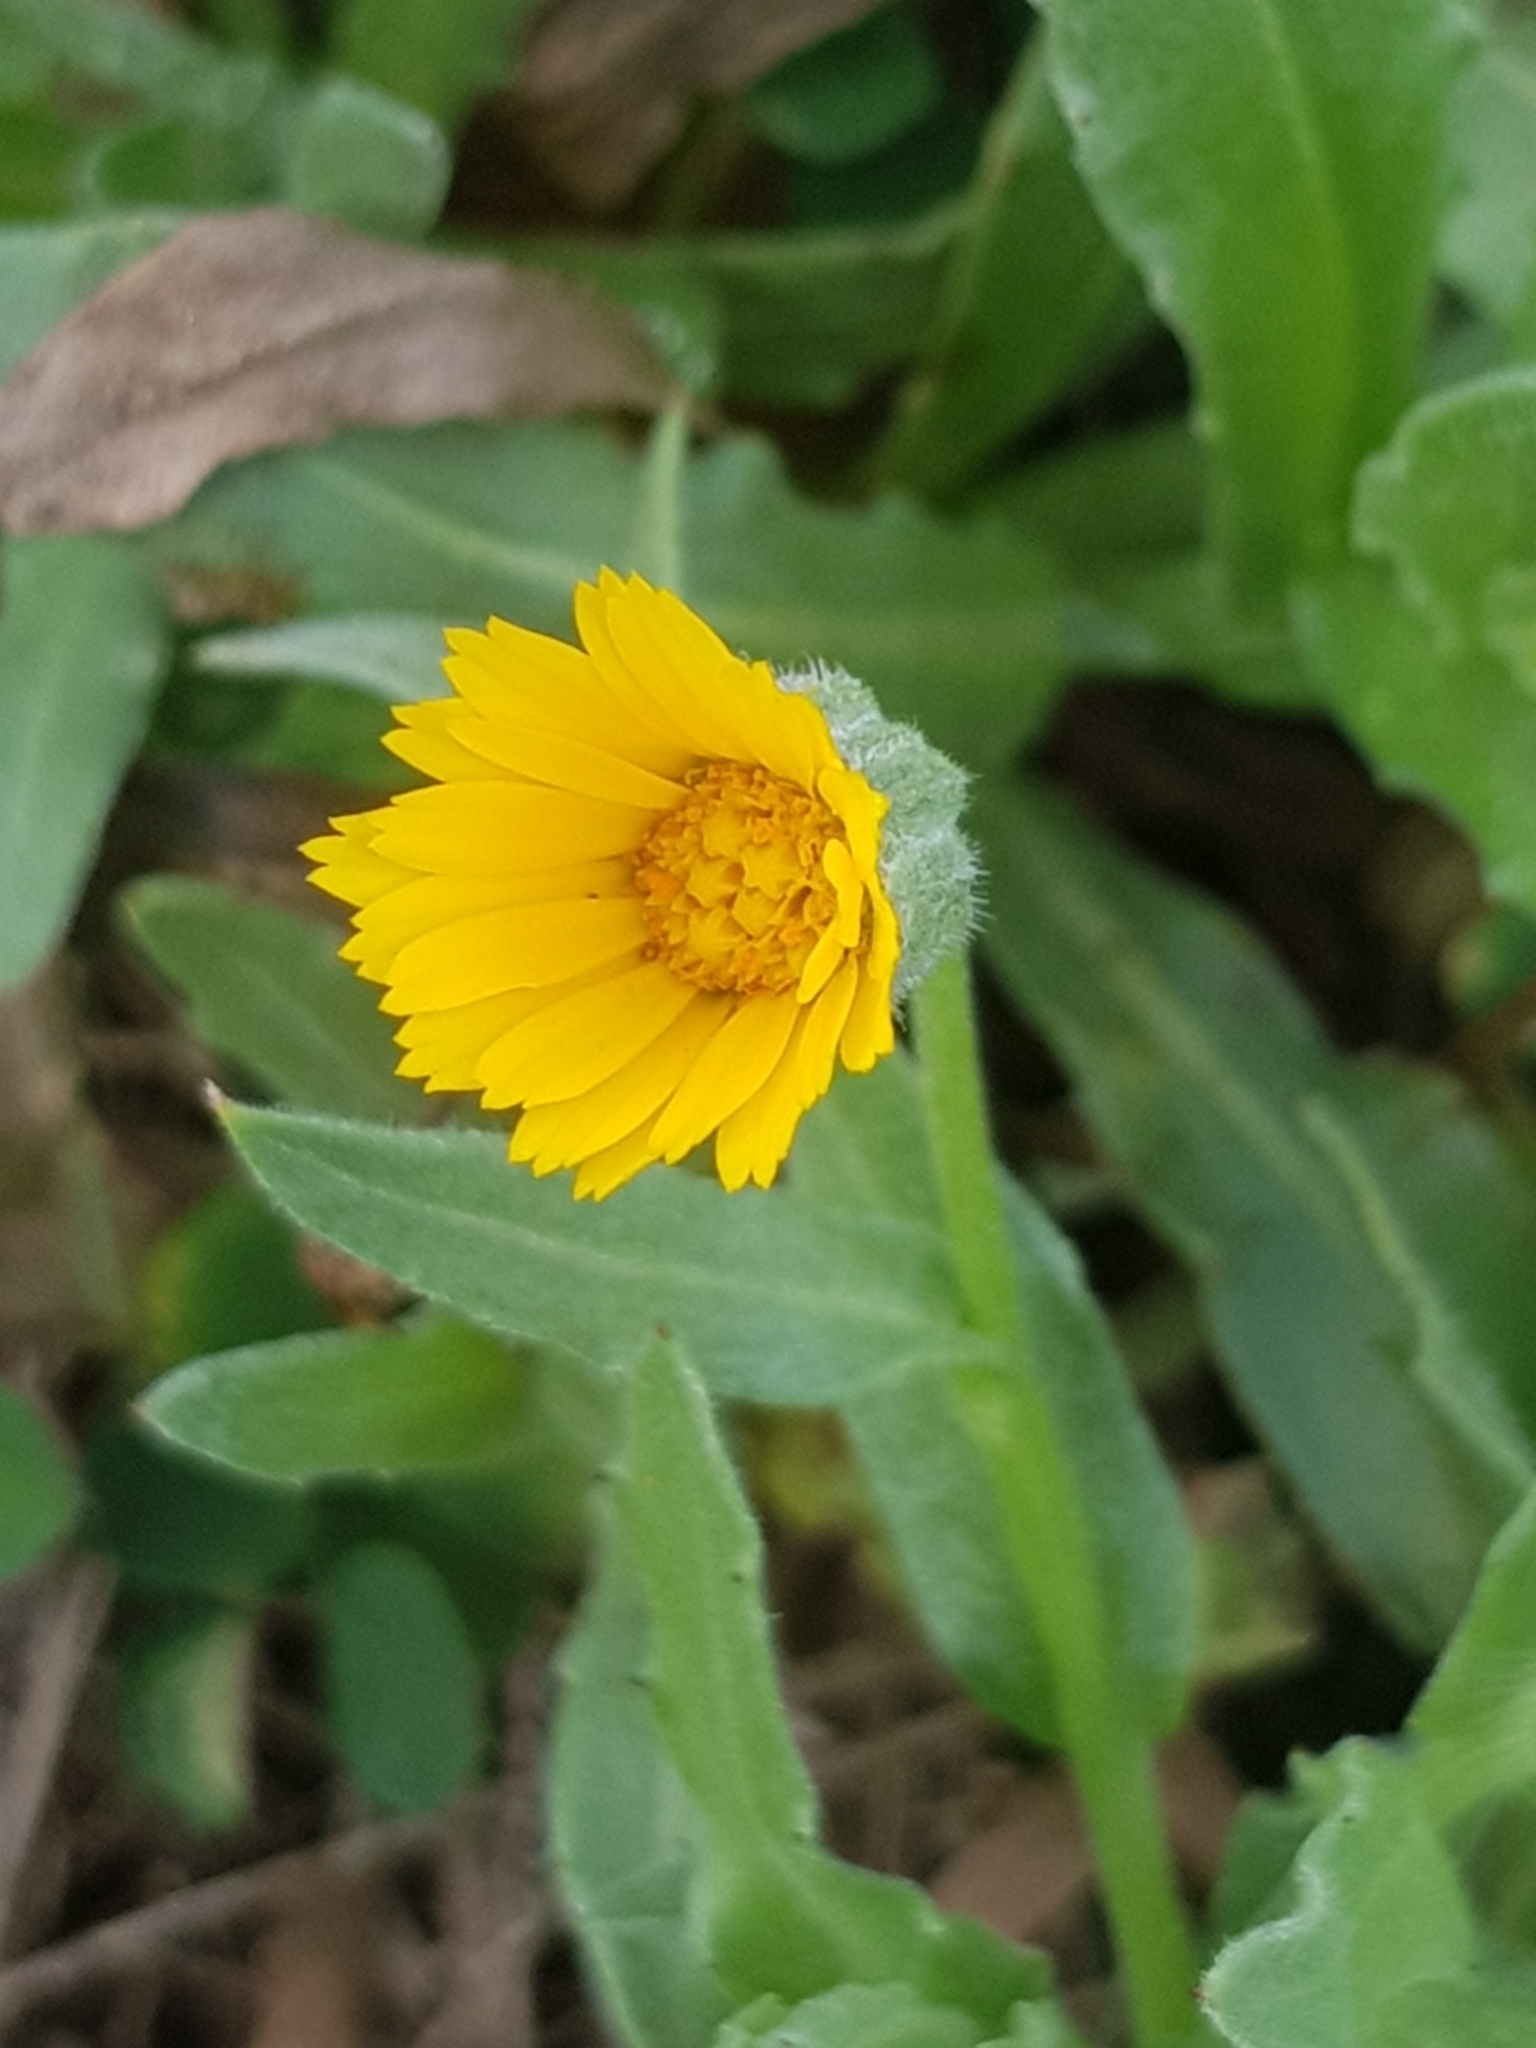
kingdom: Plantae
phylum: Tracheophyta
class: Magnoliopsida
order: Asterales
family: Asteraceae
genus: Calendula
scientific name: Calendula arvensis
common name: Field marigold
